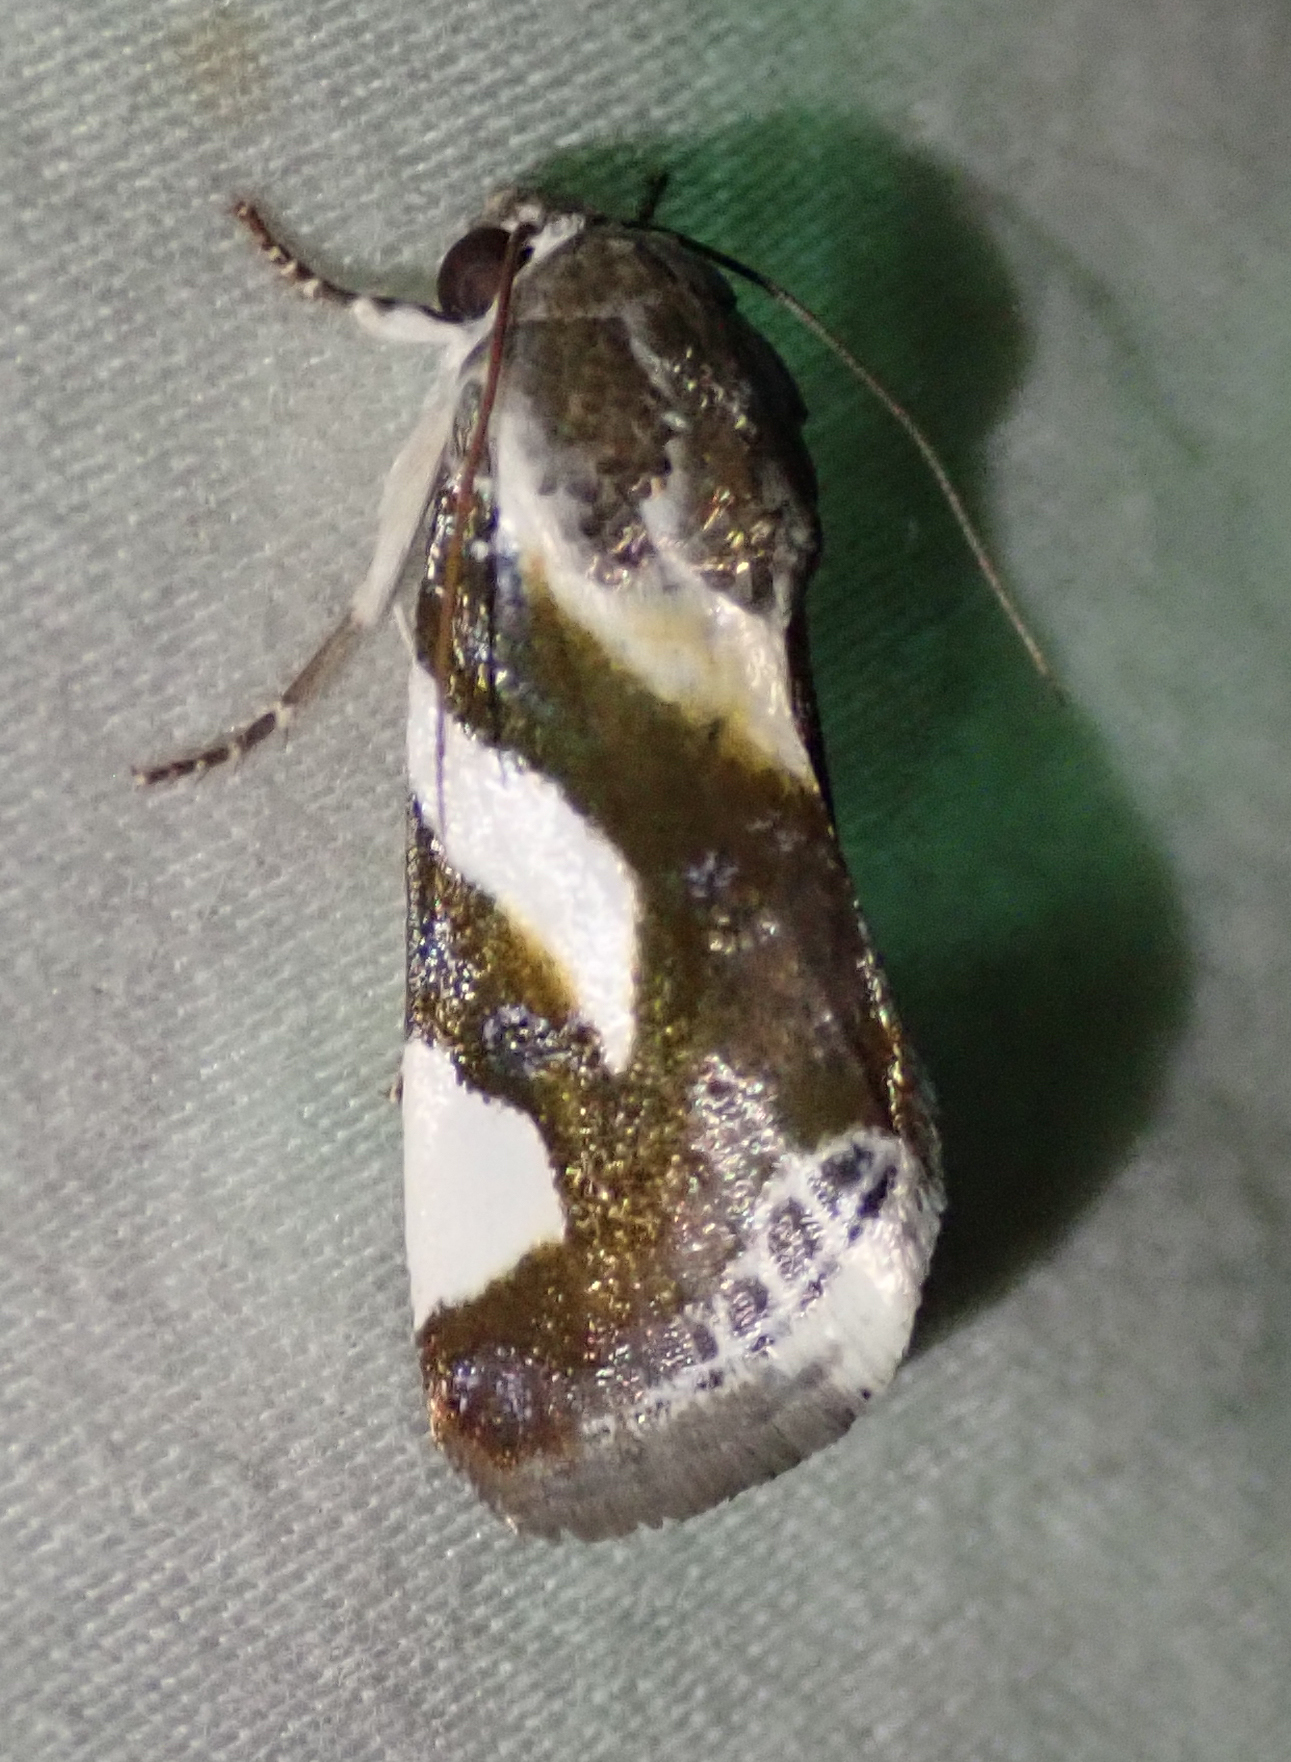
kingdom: Animalia
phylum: Arthropoda
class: Insecta
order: Lepidoptera
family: Noctuidae
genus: Acontia
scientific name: Acontia umbrigera
